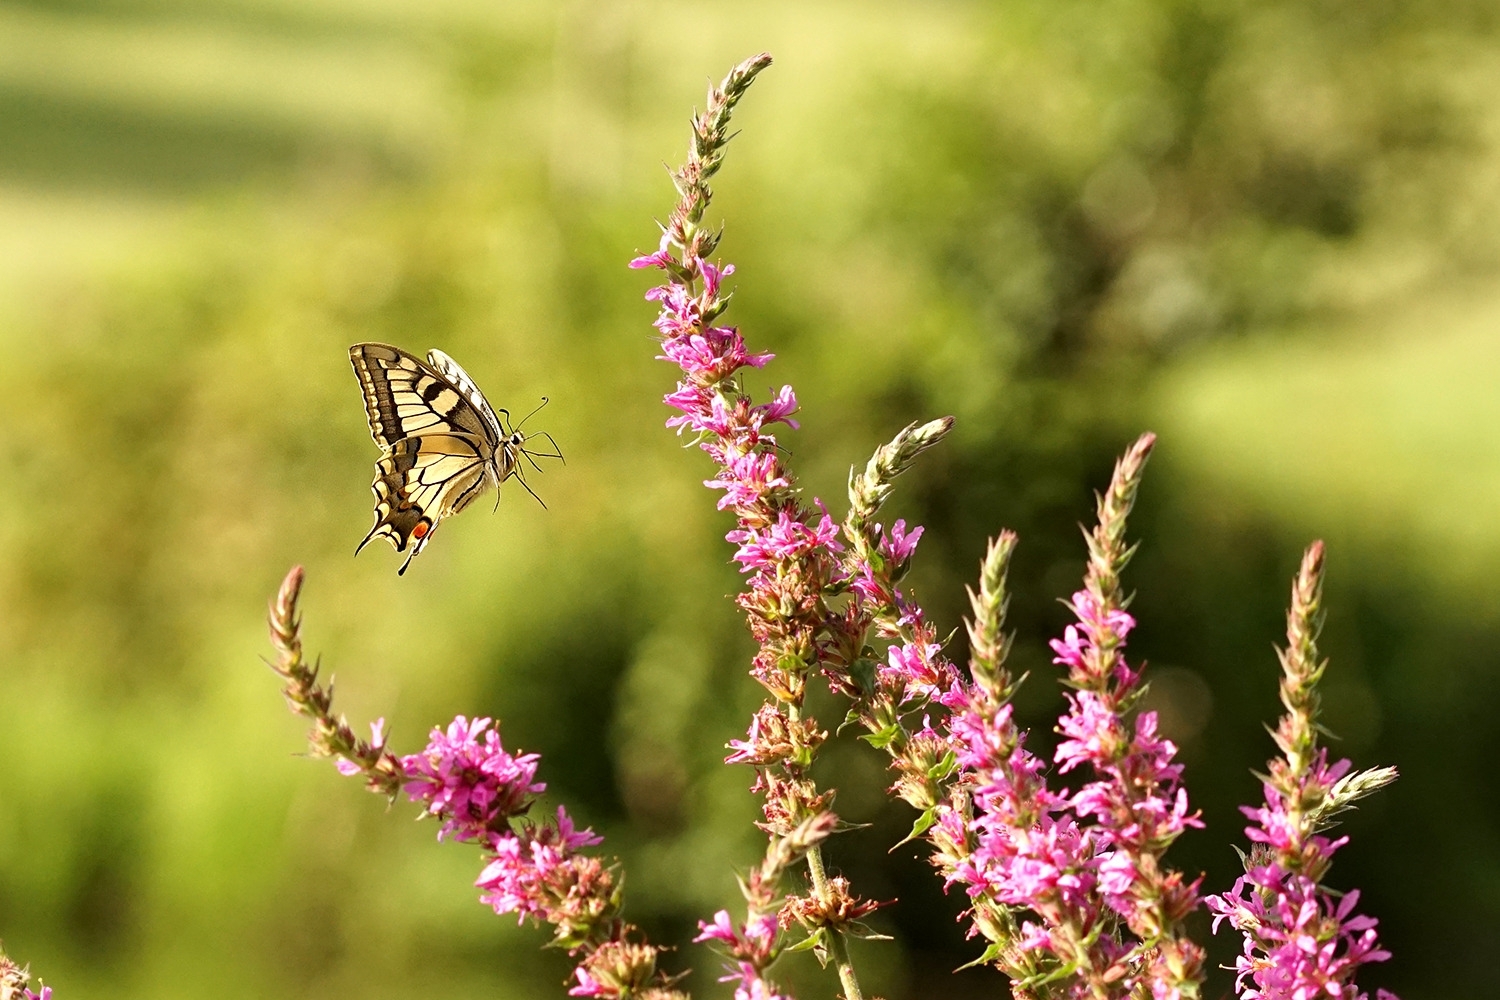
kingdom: Animalia
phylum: Arthropoda
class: Insecta
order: Lepidoptera
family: Papilionidae
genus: Papilio
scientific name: Papilio machaon
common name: Swallowtail
